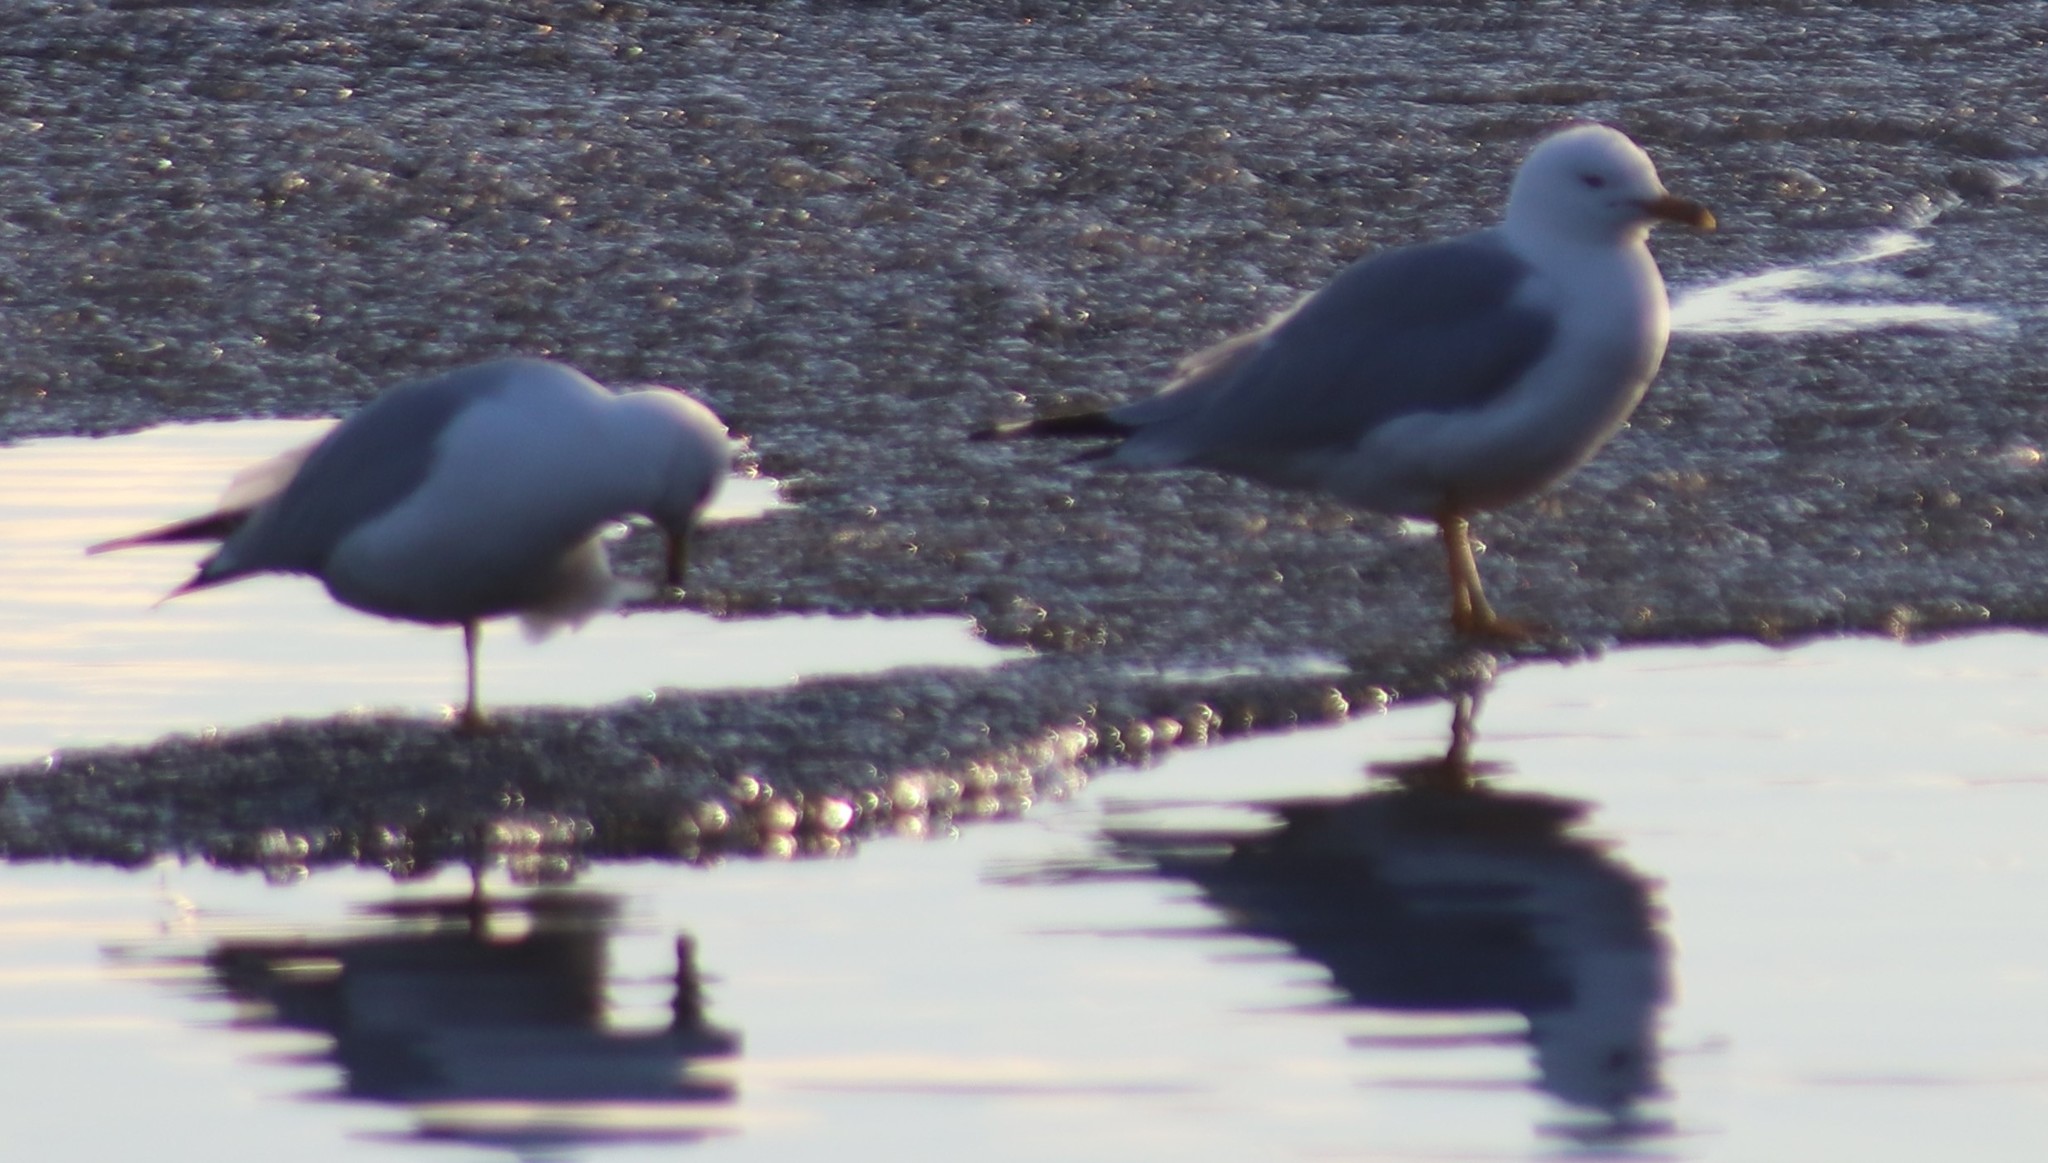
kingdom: Animalia
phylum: Chordata
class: Aves
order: Charadriiformes
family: Laridae
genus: Larus
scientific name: Larus delawarensis
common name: Ring-billed gull
